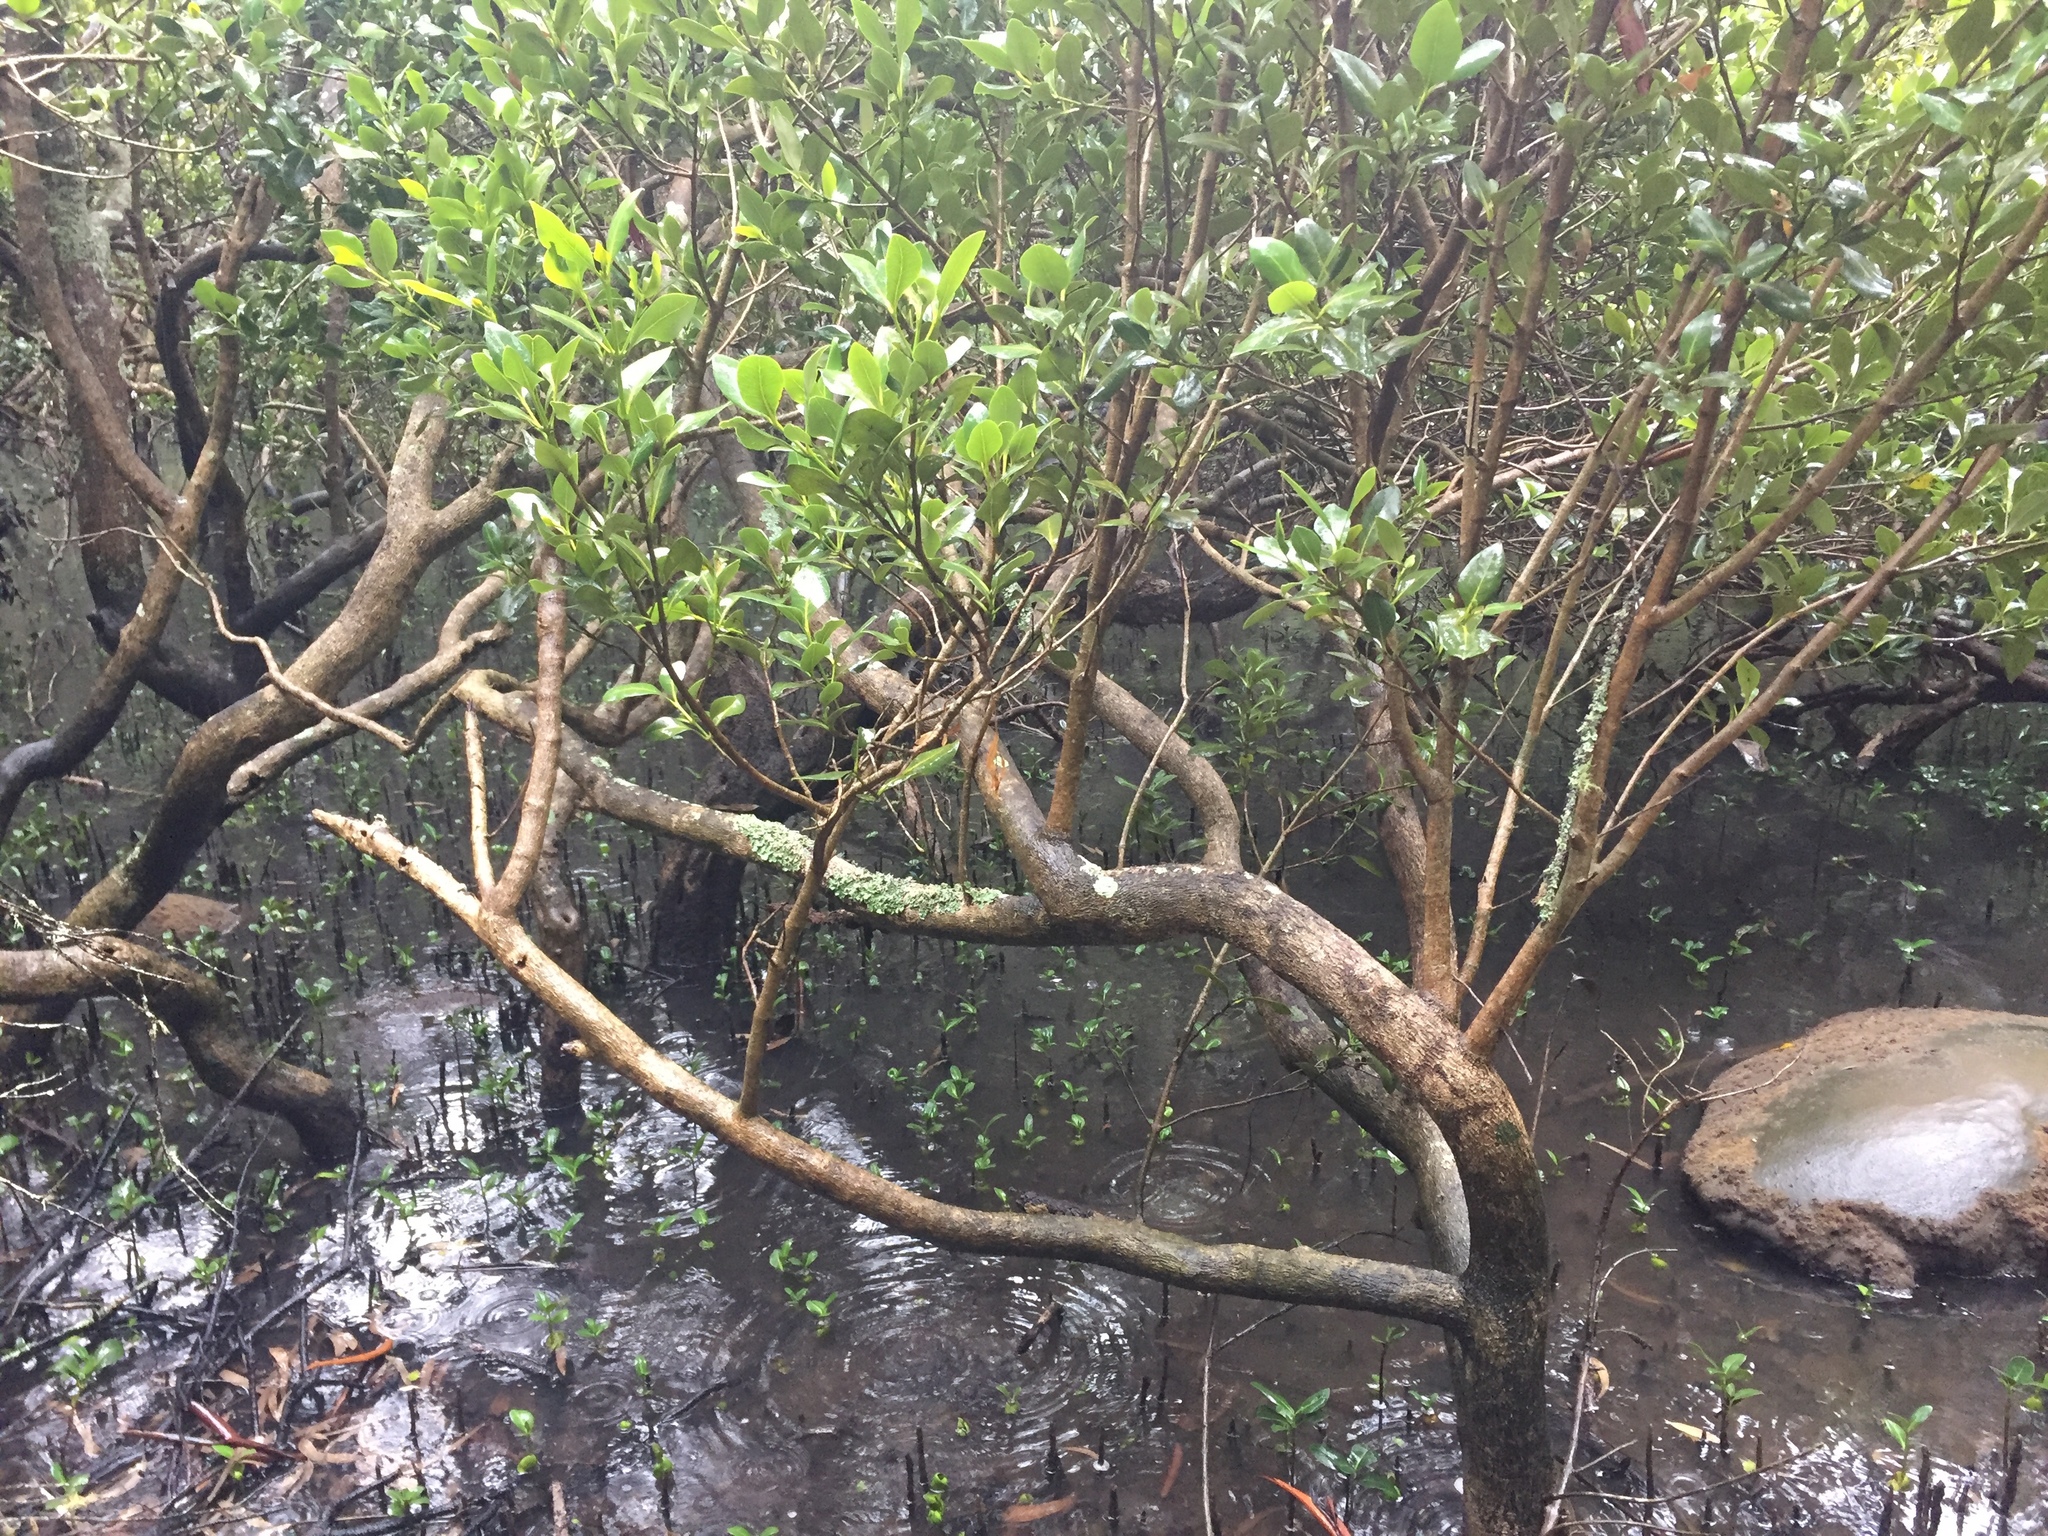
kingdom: Plantae
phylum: Tracheophyta
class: Magnoliopsida
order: Lamiales
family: Acanthaceae
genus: Avicennia
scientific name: Avicennia marina
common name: Gray mangrove
